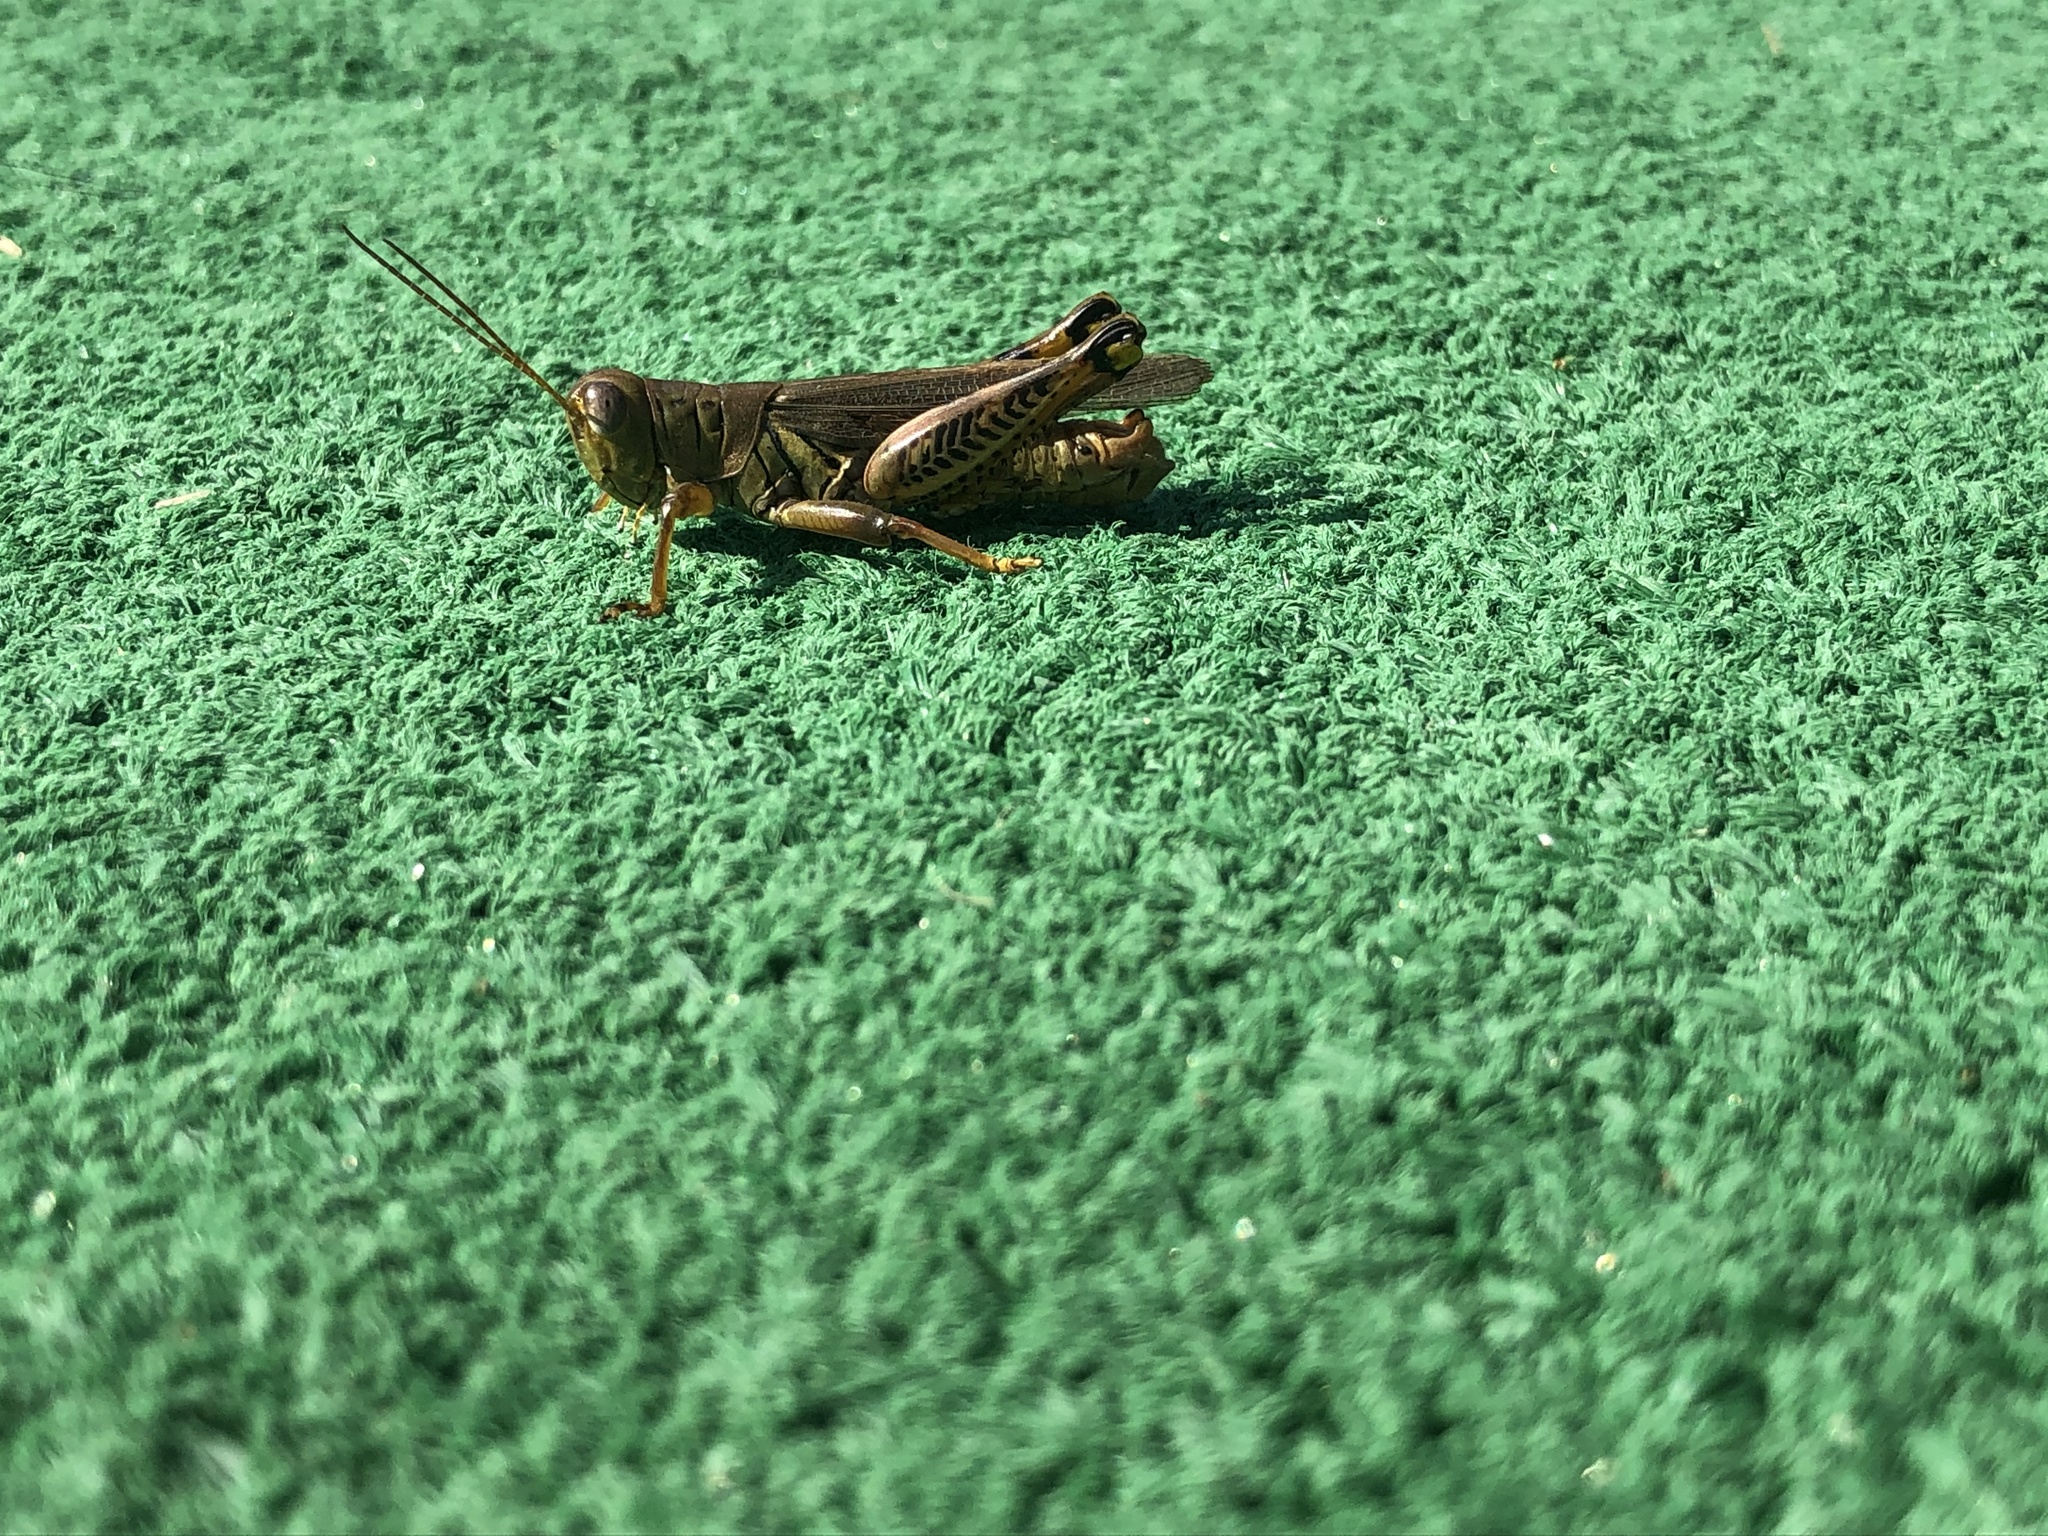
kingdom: Animalia
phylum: Arthropoda
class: Insecta
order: Orthoptera
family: Acrididae
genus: Melanoplus
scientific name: Melanoplus differentialis
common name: Differential grasshopper
